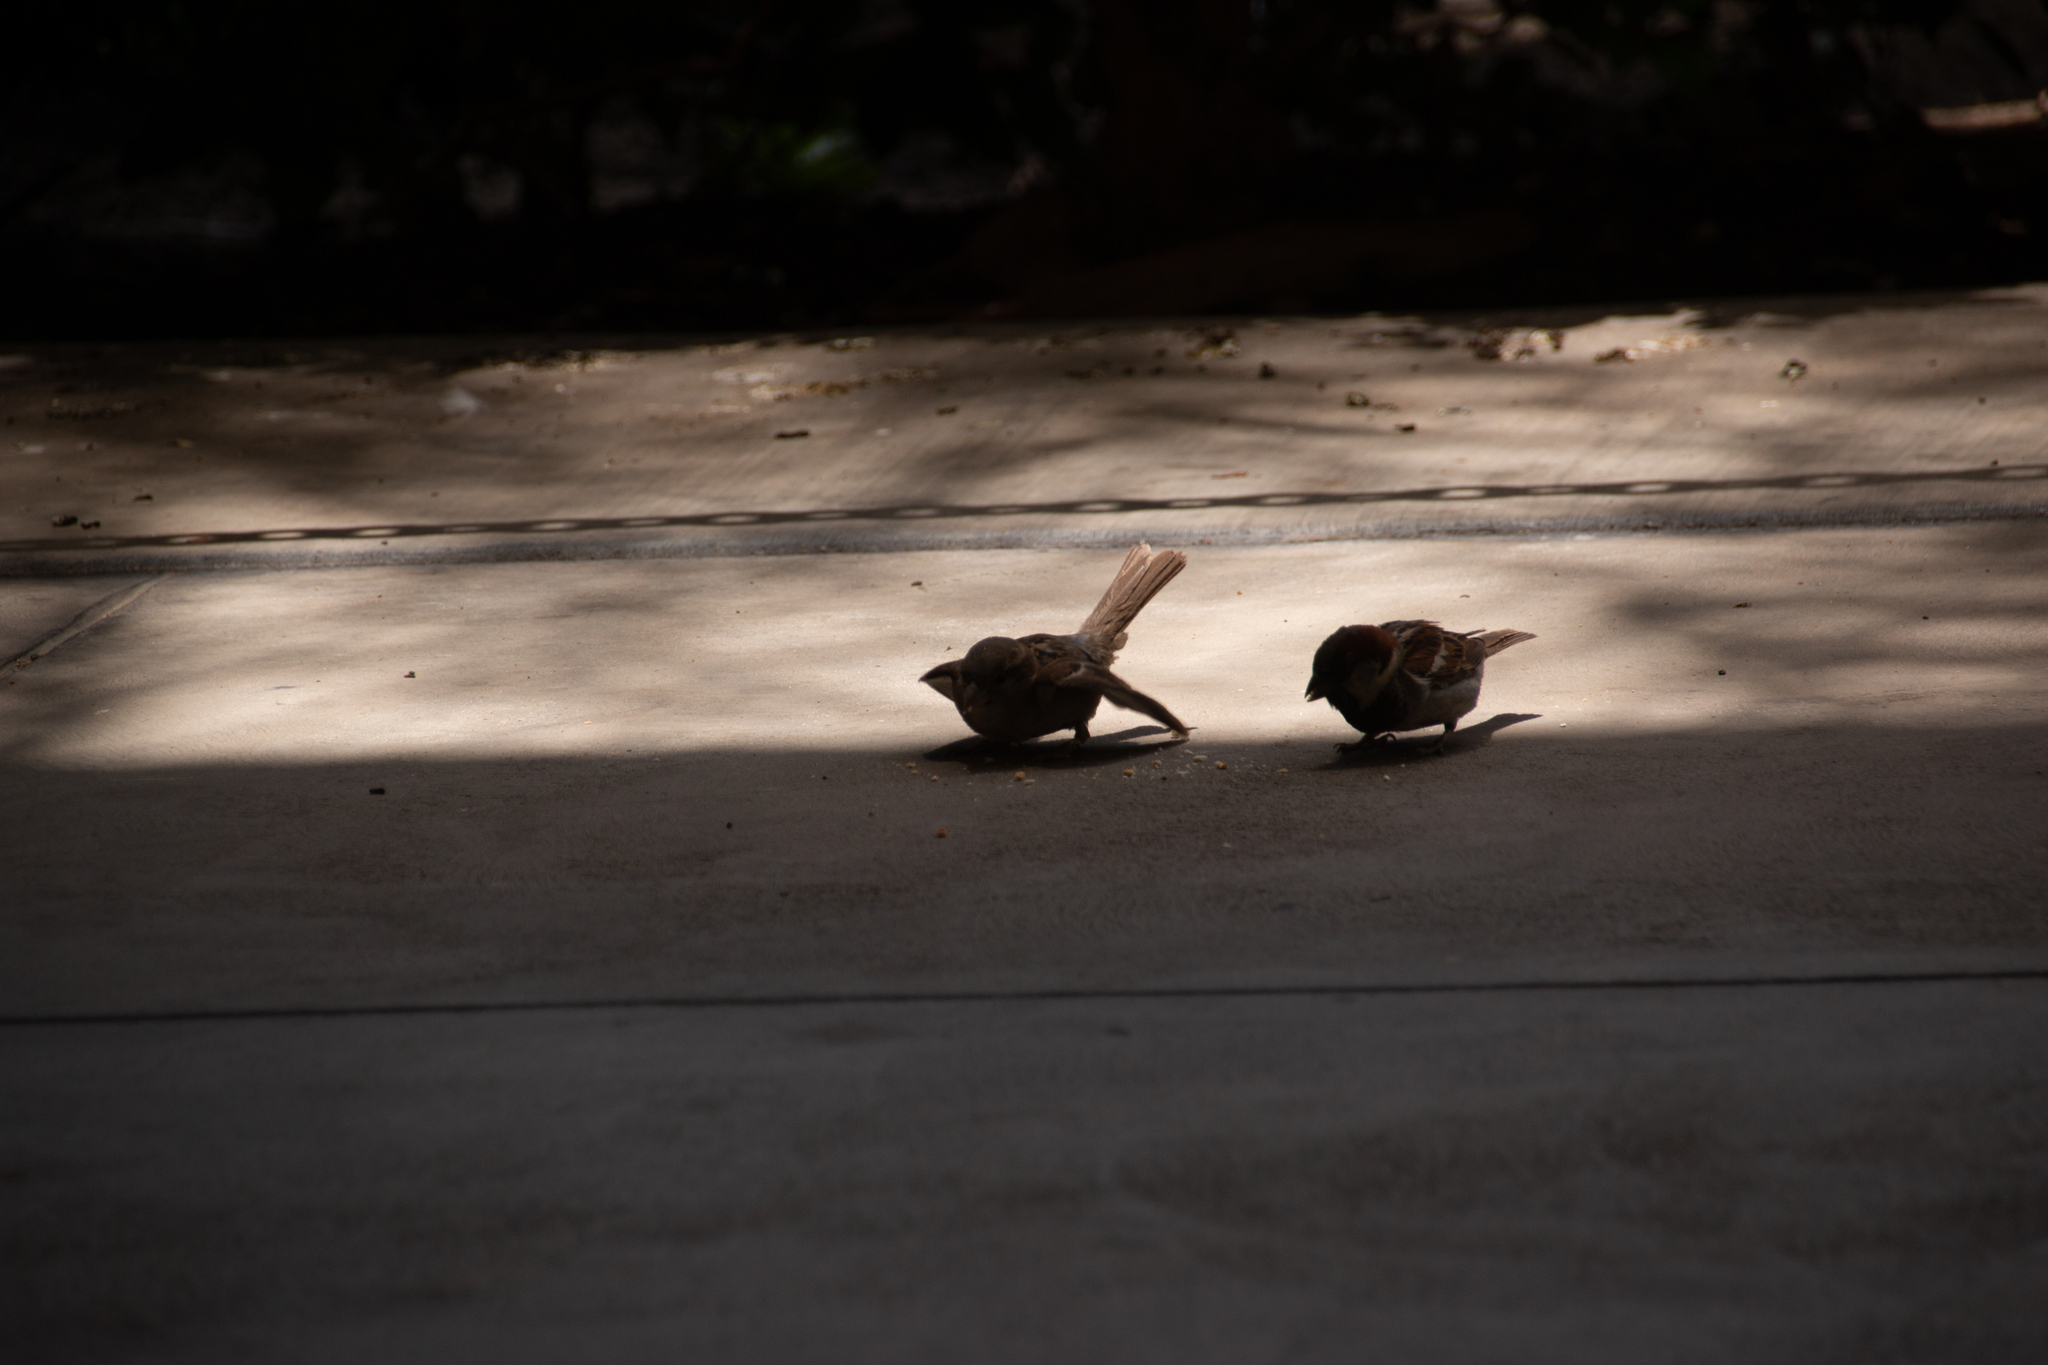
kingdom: Animalia
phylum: Chordata
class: Aves
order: Passeriformes
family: Passeridae
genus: Passer
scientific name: Passer domesticus
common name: House sparrow
